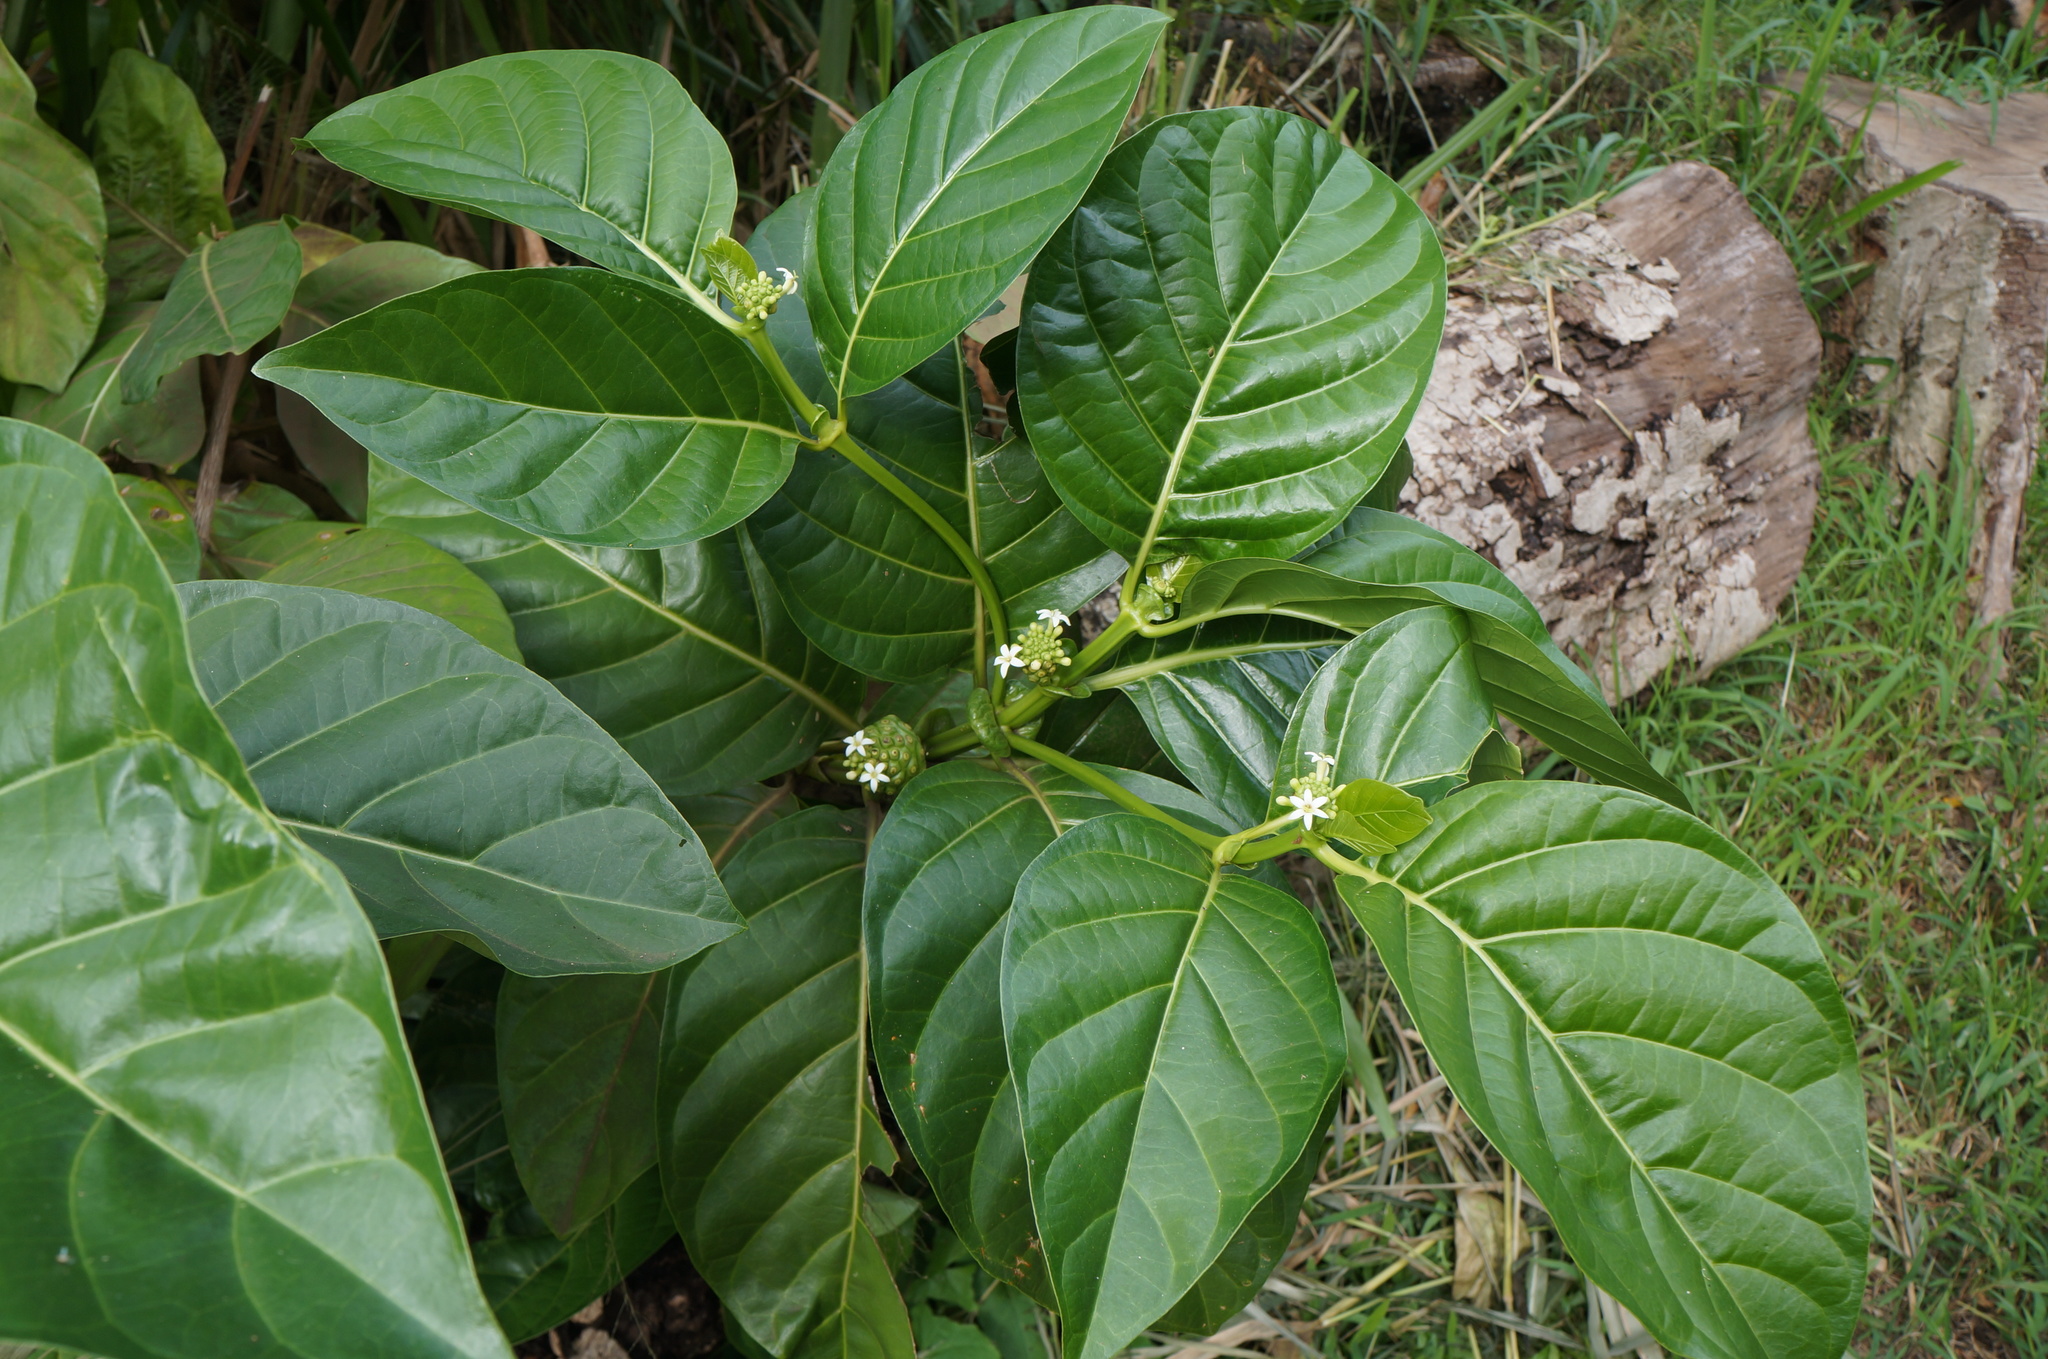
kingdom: Plantae
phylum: Tracheophyta
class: Magnoliopsida
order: Gentianales
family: Rubiaceae
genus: Morinda
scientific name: Morinda citrifolia
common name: Indian-mulberry
